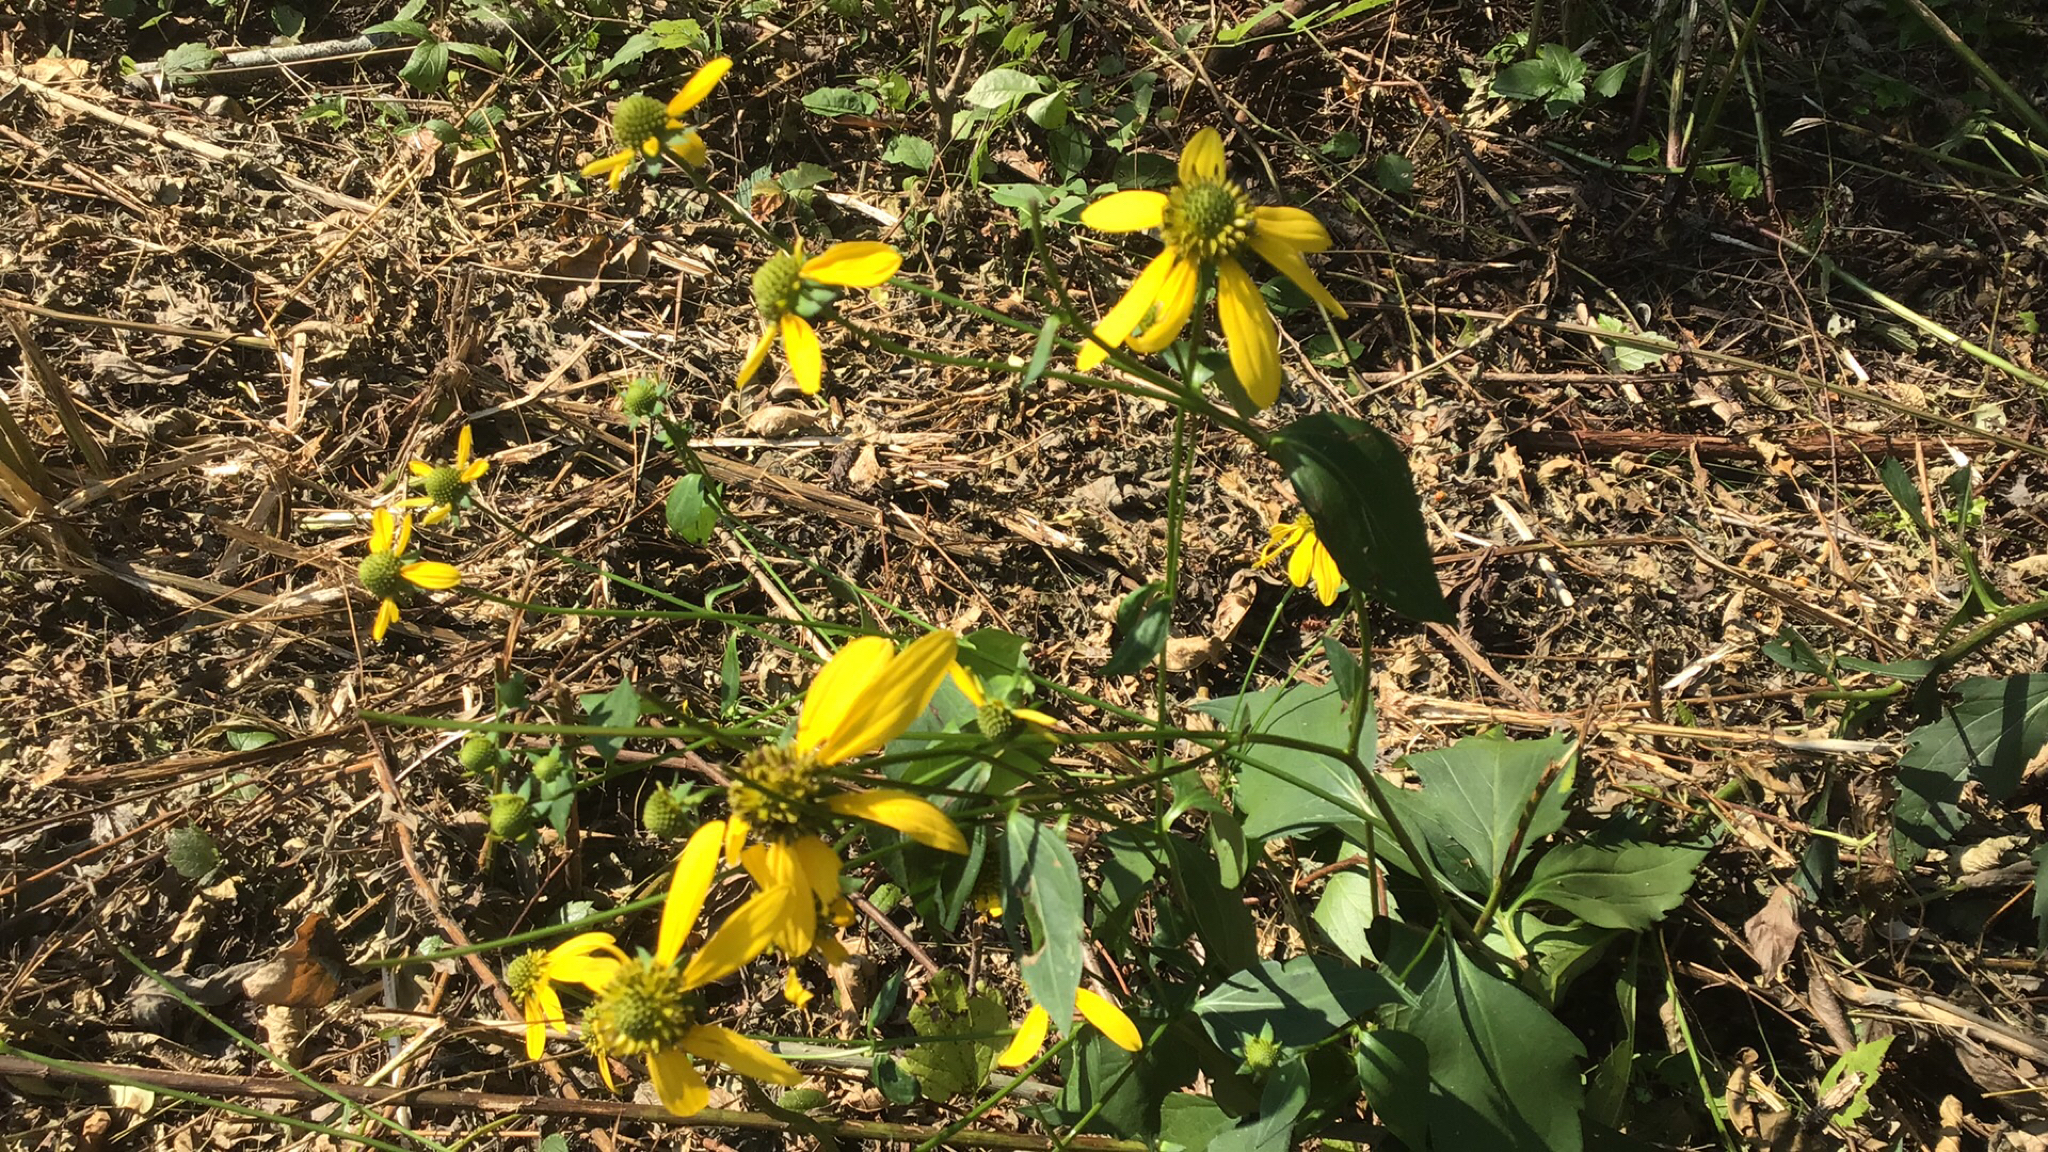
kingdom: Plantae
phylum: Tracheophyta
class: Magnoliopsida
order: Asterales
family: Asteraceae
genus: Rudbeckia
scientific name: Rudbeckia laciniata
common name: Coneflower
